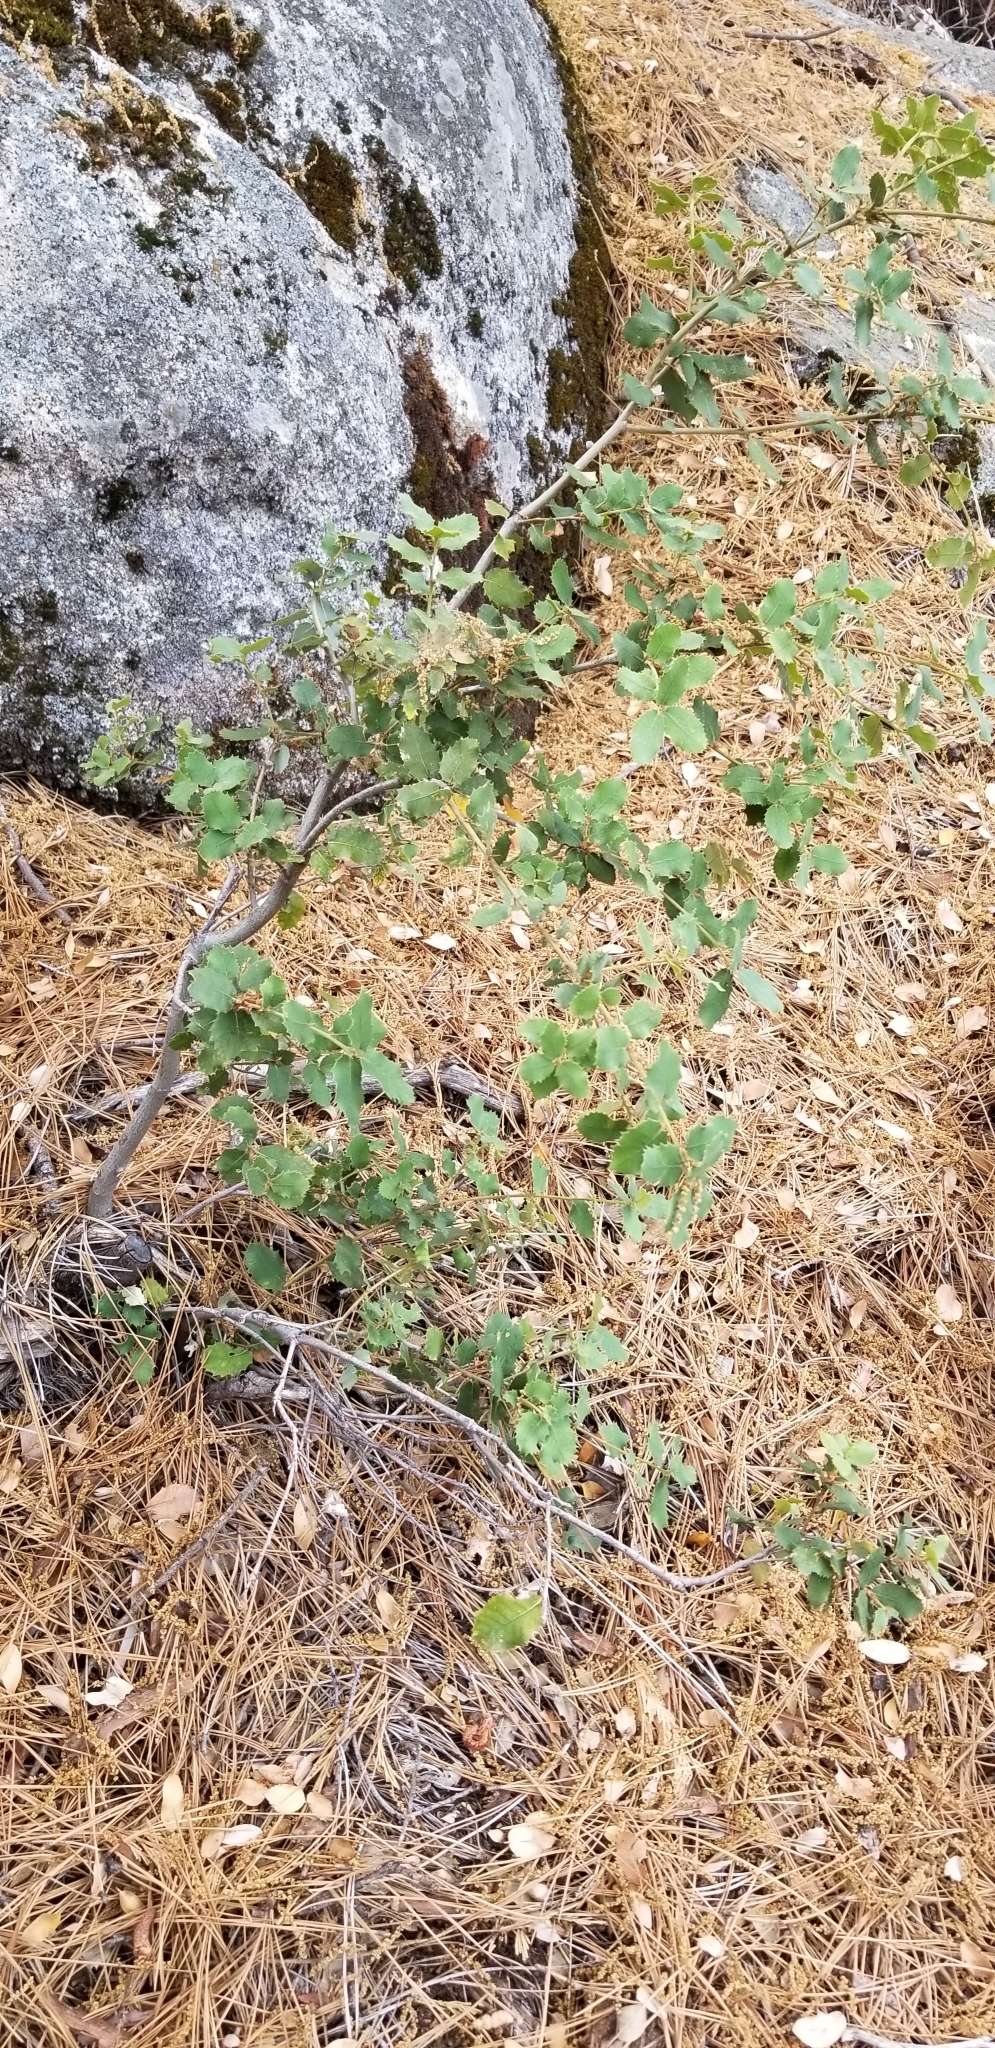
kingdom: Plantae
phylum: Tracheophyta
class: Magnoliopsida
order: Fagales
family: Fagaceae
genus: Quercus
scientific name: Quercus chrysolepis
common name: Canyon live oak
